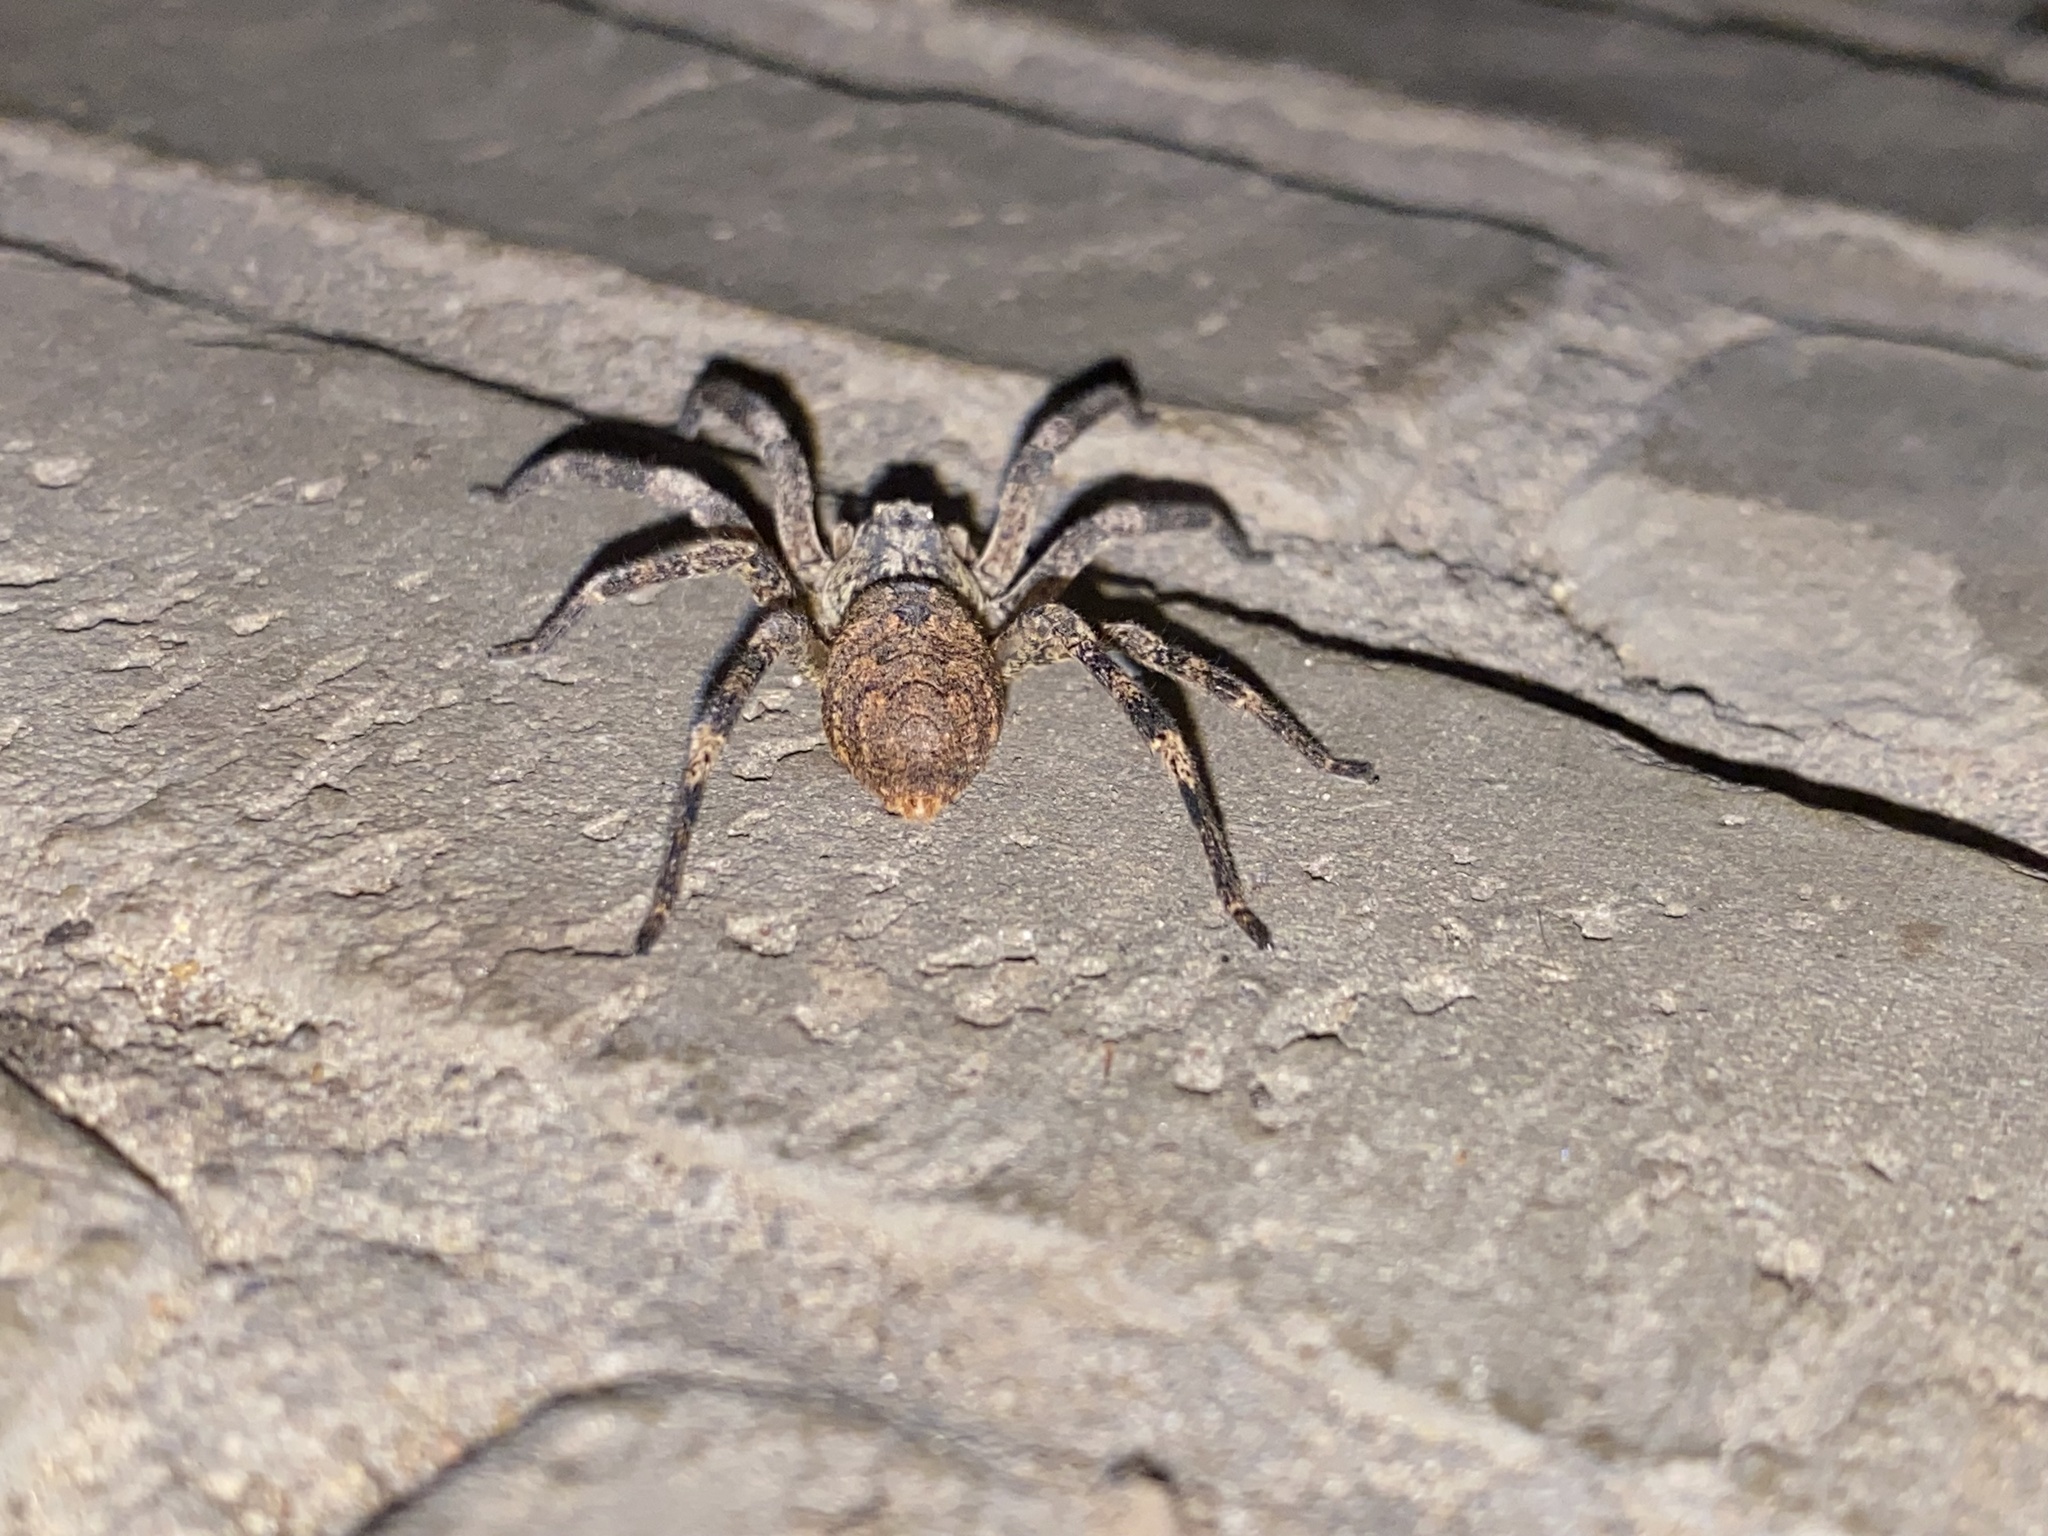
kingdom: Animalia
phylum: Arthropoda
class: Arachnida
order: Araneae
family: Zoropsidae
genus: Zoropsis
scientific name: Zoropsis spinimana
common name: Zoropsid spider
